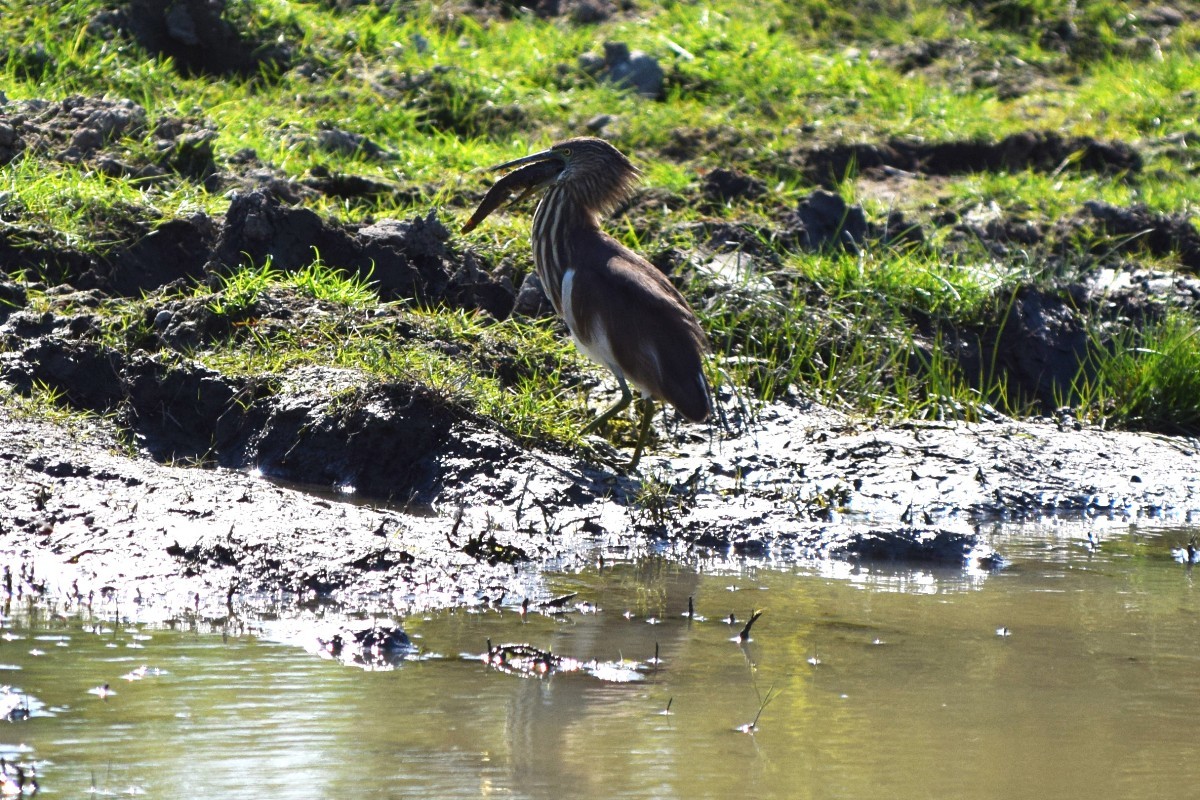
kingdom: Animalia
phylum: Chordata
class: Aves
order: Pelecaniformes
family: Ardeidae
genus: Ardeola
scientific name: Ardeola grayii
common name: Indian pond heron
